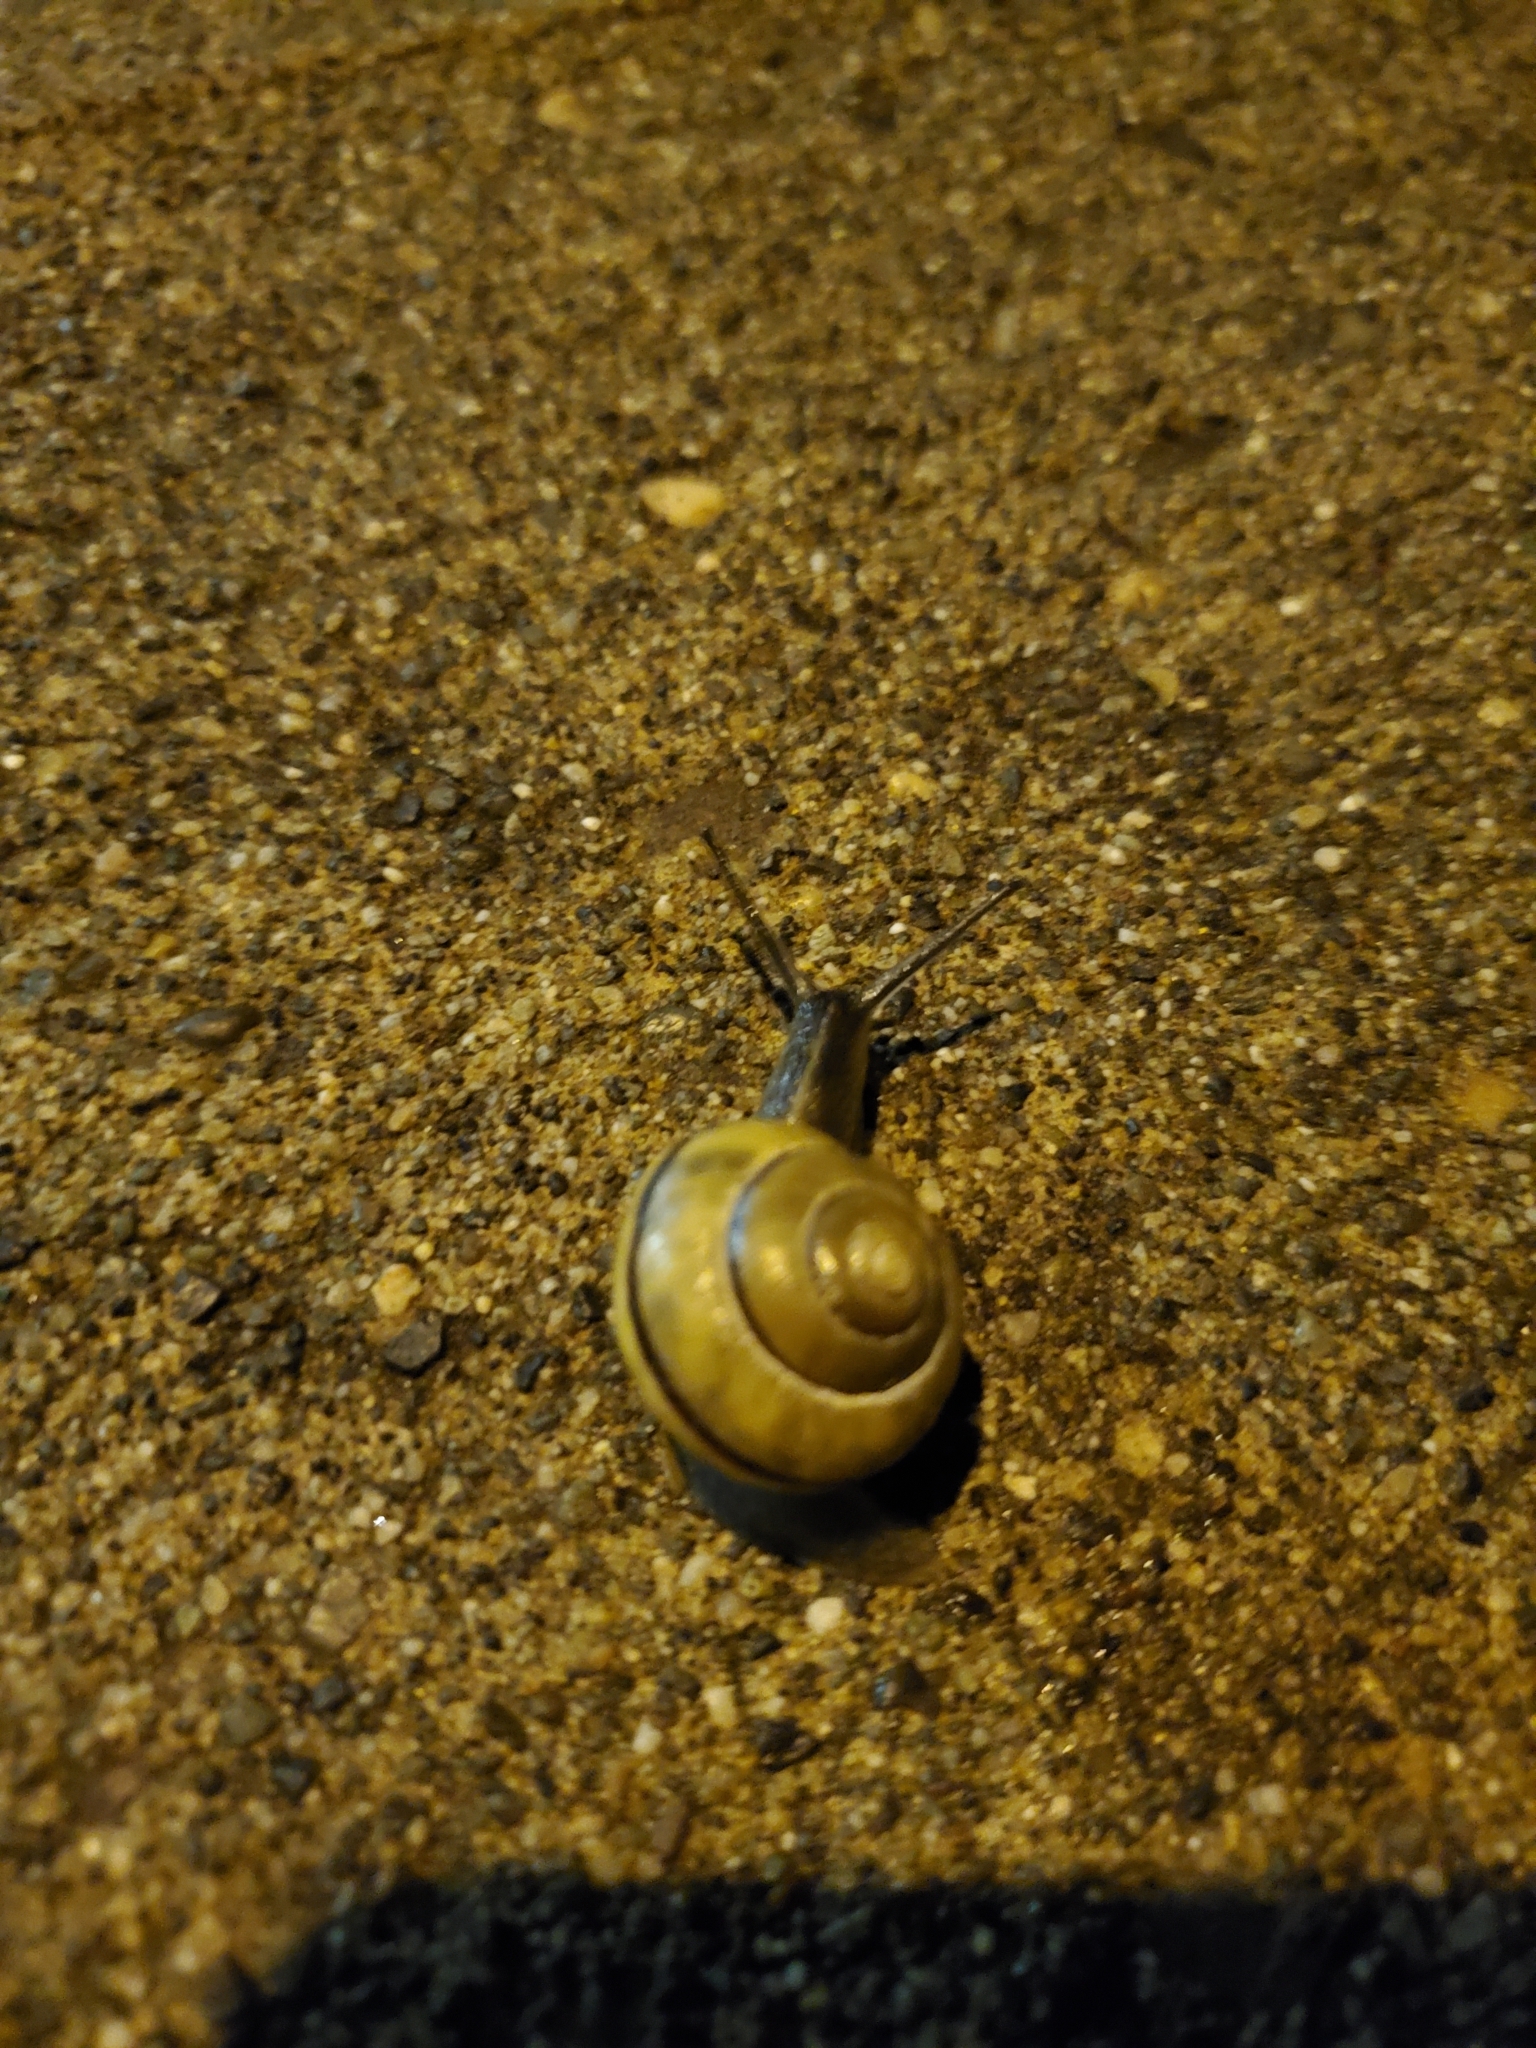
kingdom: Animalia
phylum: Mollusca
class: Gastropoda
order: Stylommatophora
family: Helicidae
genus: Cepaea
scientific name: Cepaea nemoralis
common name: Grovesnail
